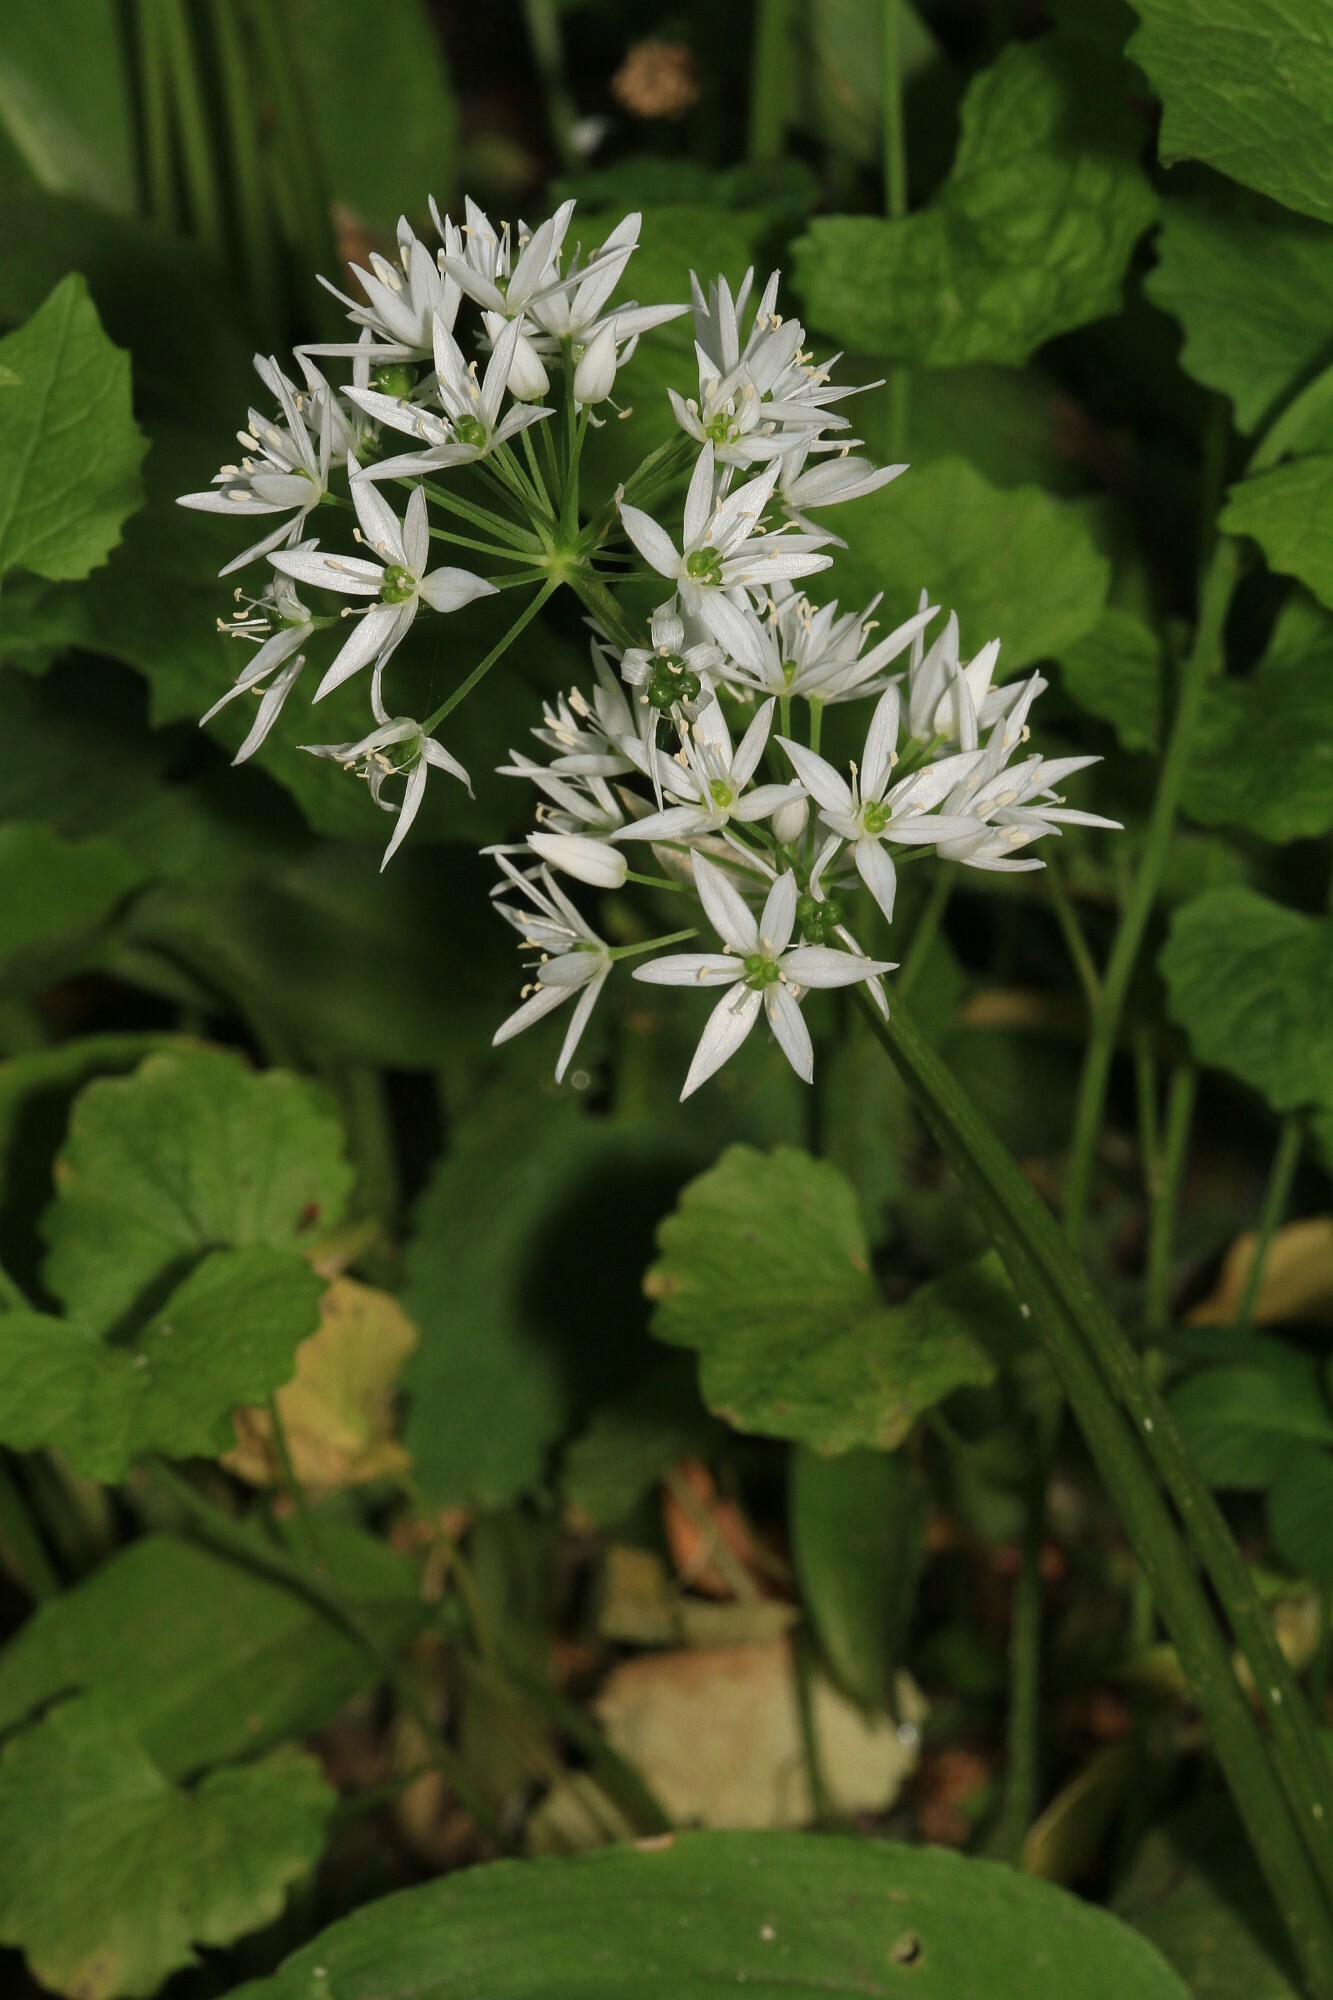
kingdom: Plantae
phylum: Tracheophyta
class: Liliopsida
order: Asparagales
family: Amaryllidaceae
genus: Allium
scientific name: Allium ursinum
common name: Ramsons
